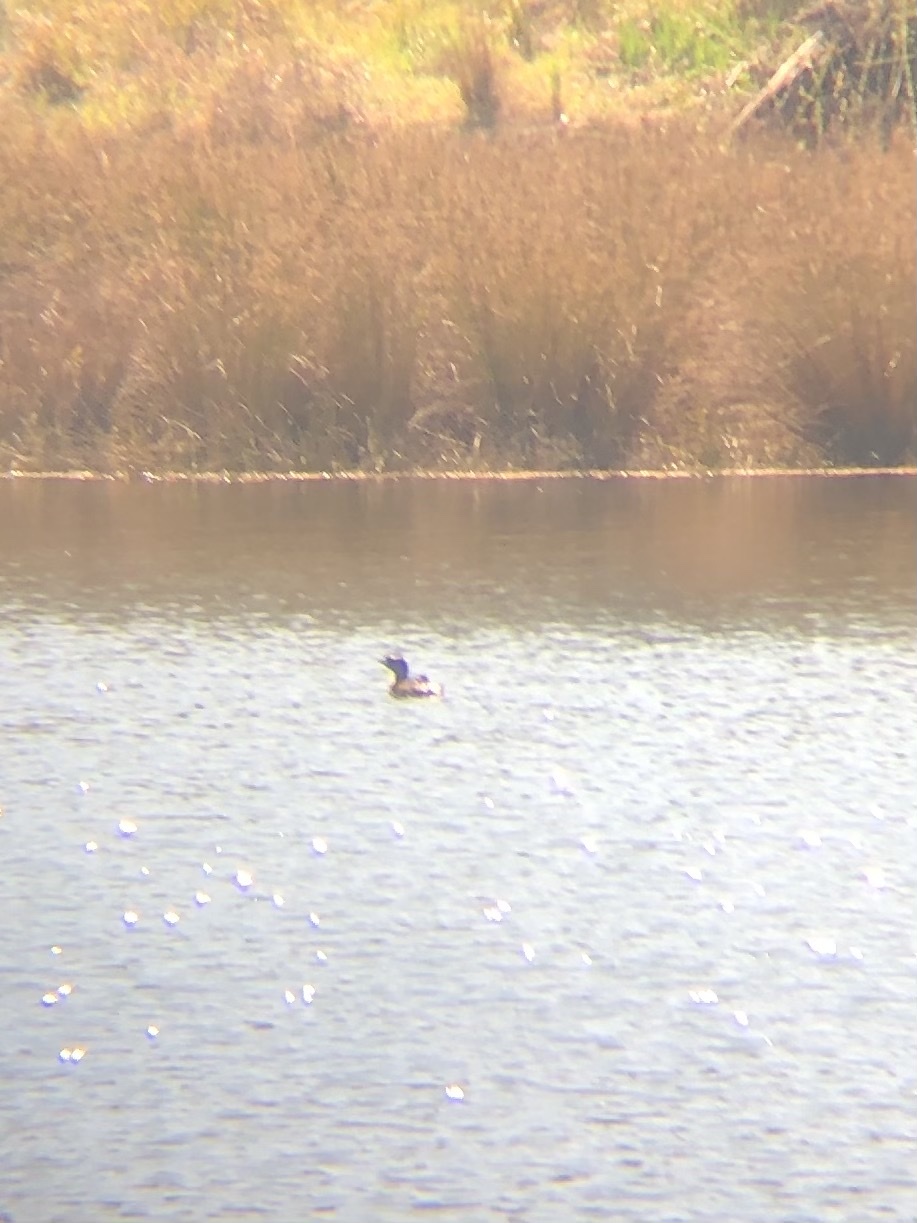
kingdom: Animalia
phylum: Chordata
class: Aves
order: Podicipediformes
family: Podicipedidae
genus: Podilymbus
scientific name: Podilymbus podiceps
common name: Pied-billed grebe
